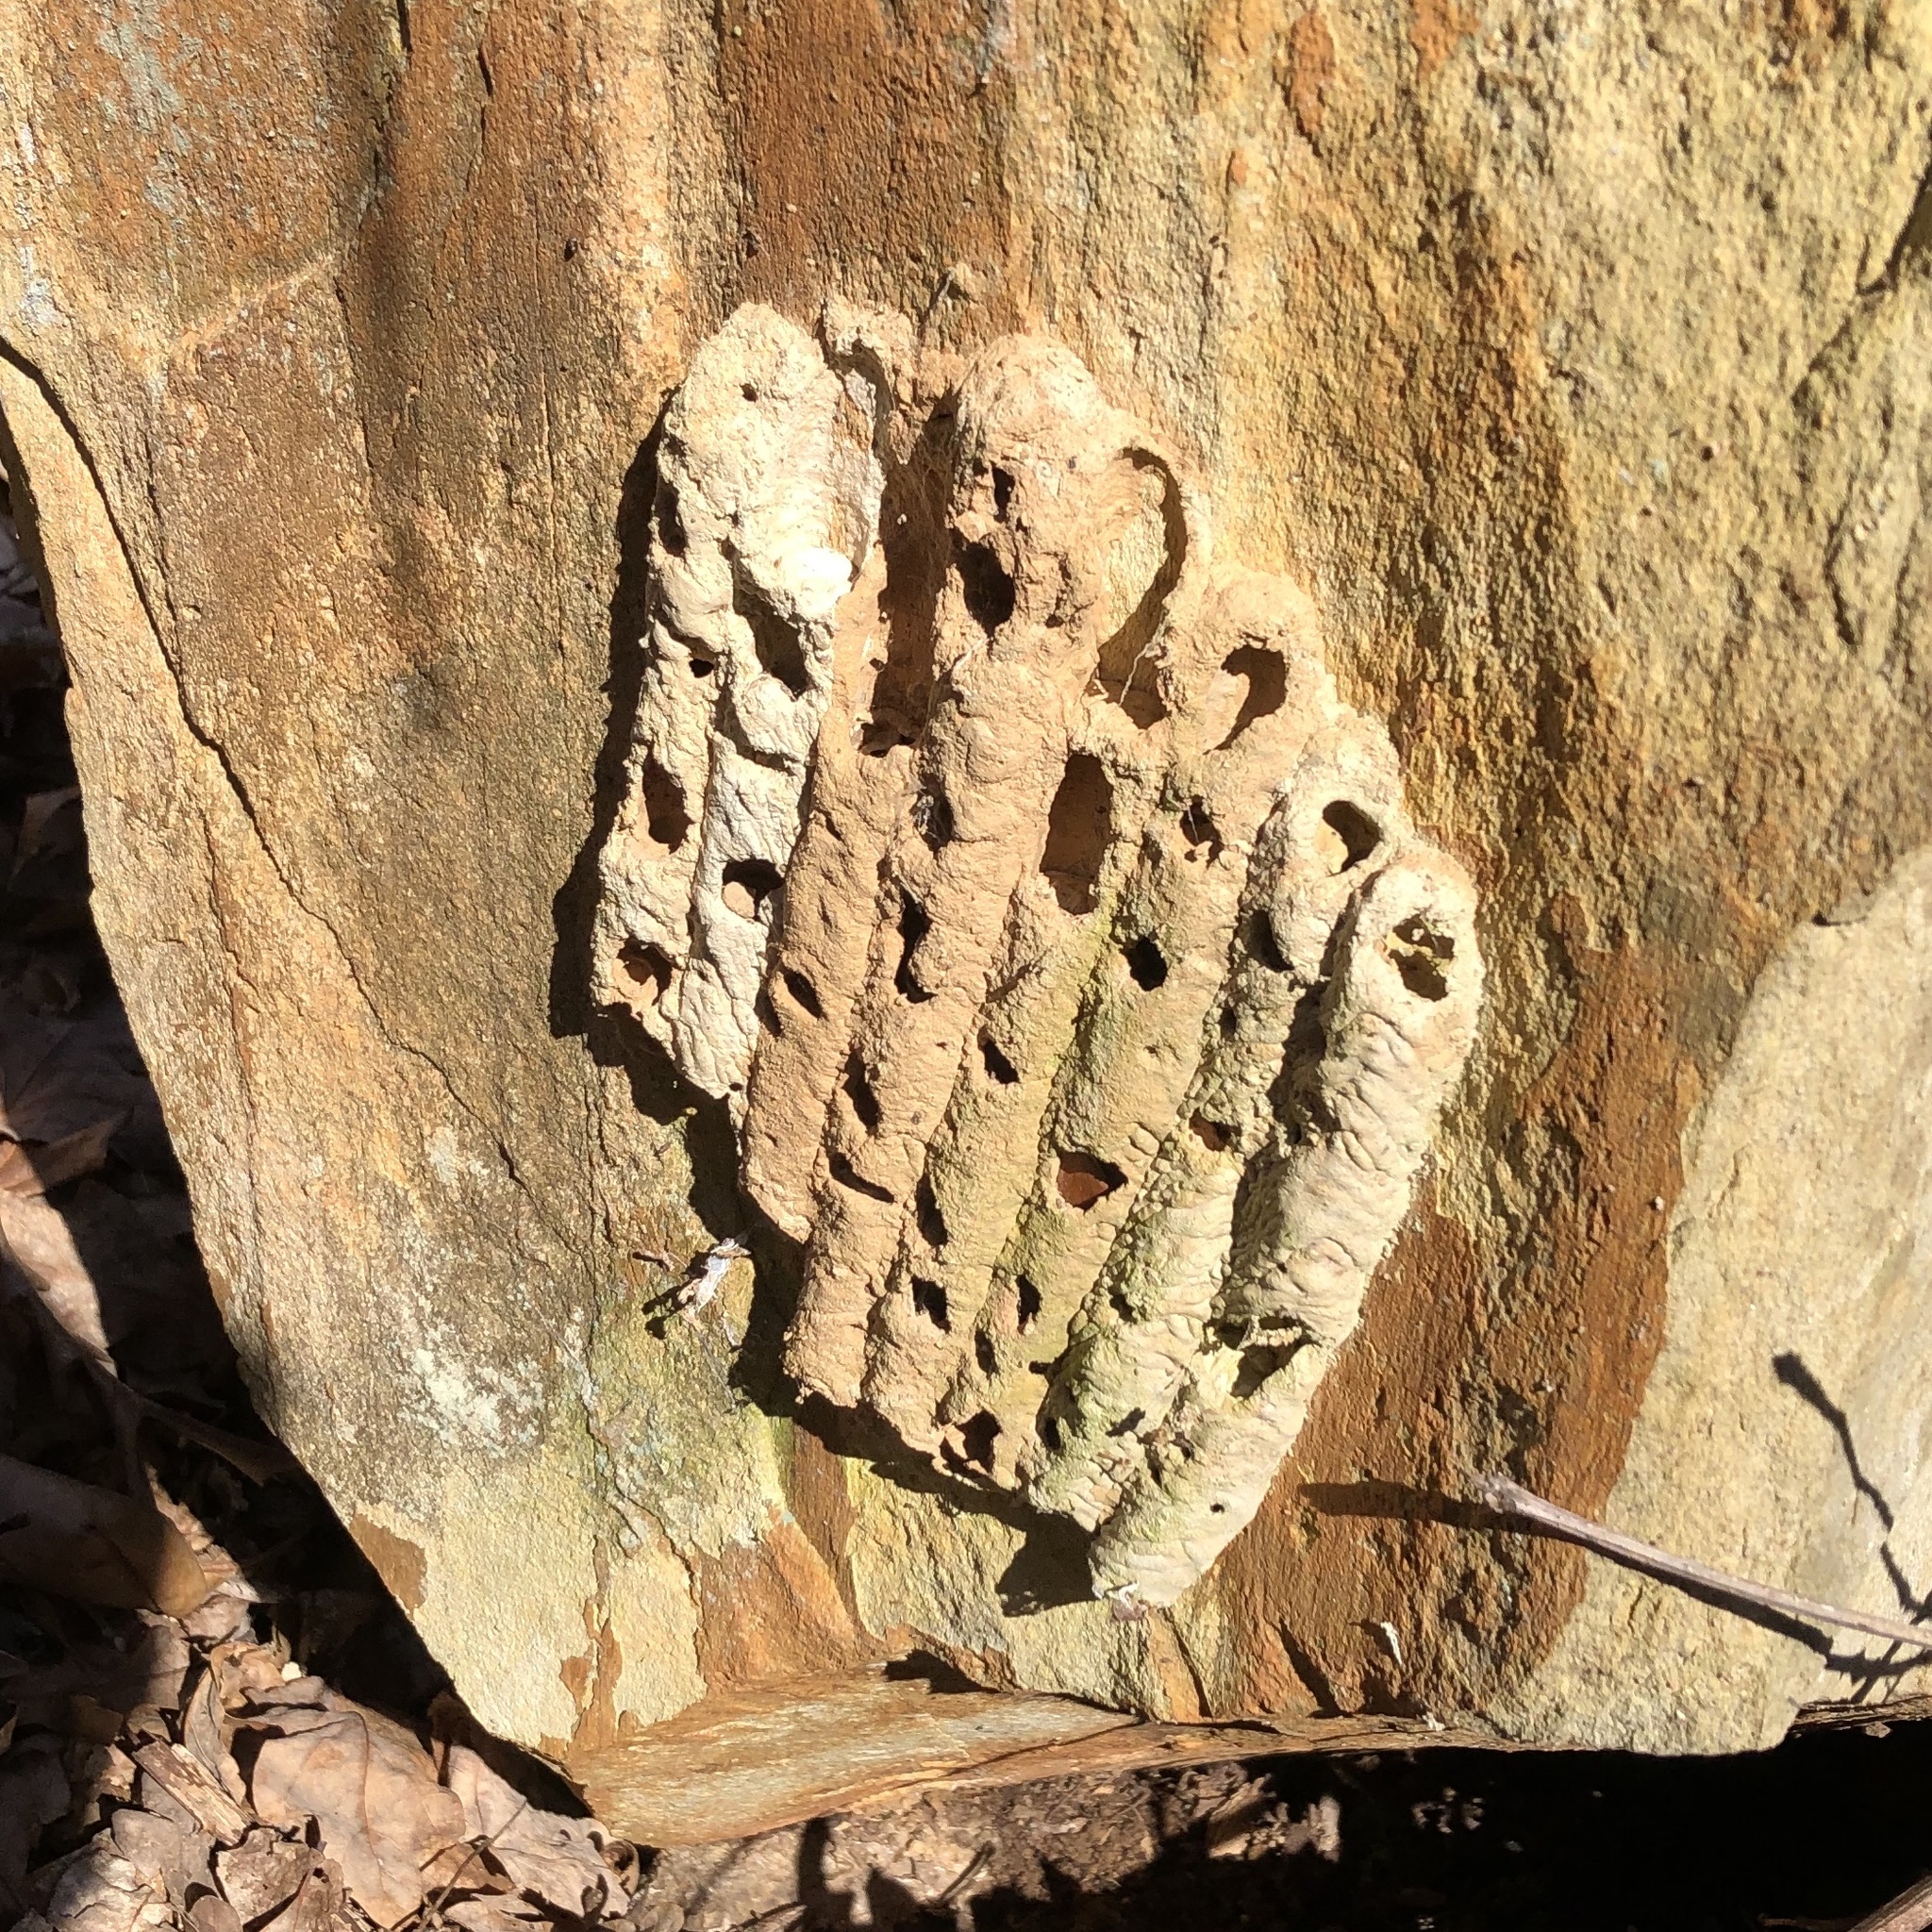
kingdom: Animalia
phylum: Arthropoda
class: Insecta
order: Hymenoptera
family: Crabronidae
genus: Trypoxylon
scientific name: Trypoxylon politum
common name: Organ-pipe mud-dauber wasp
